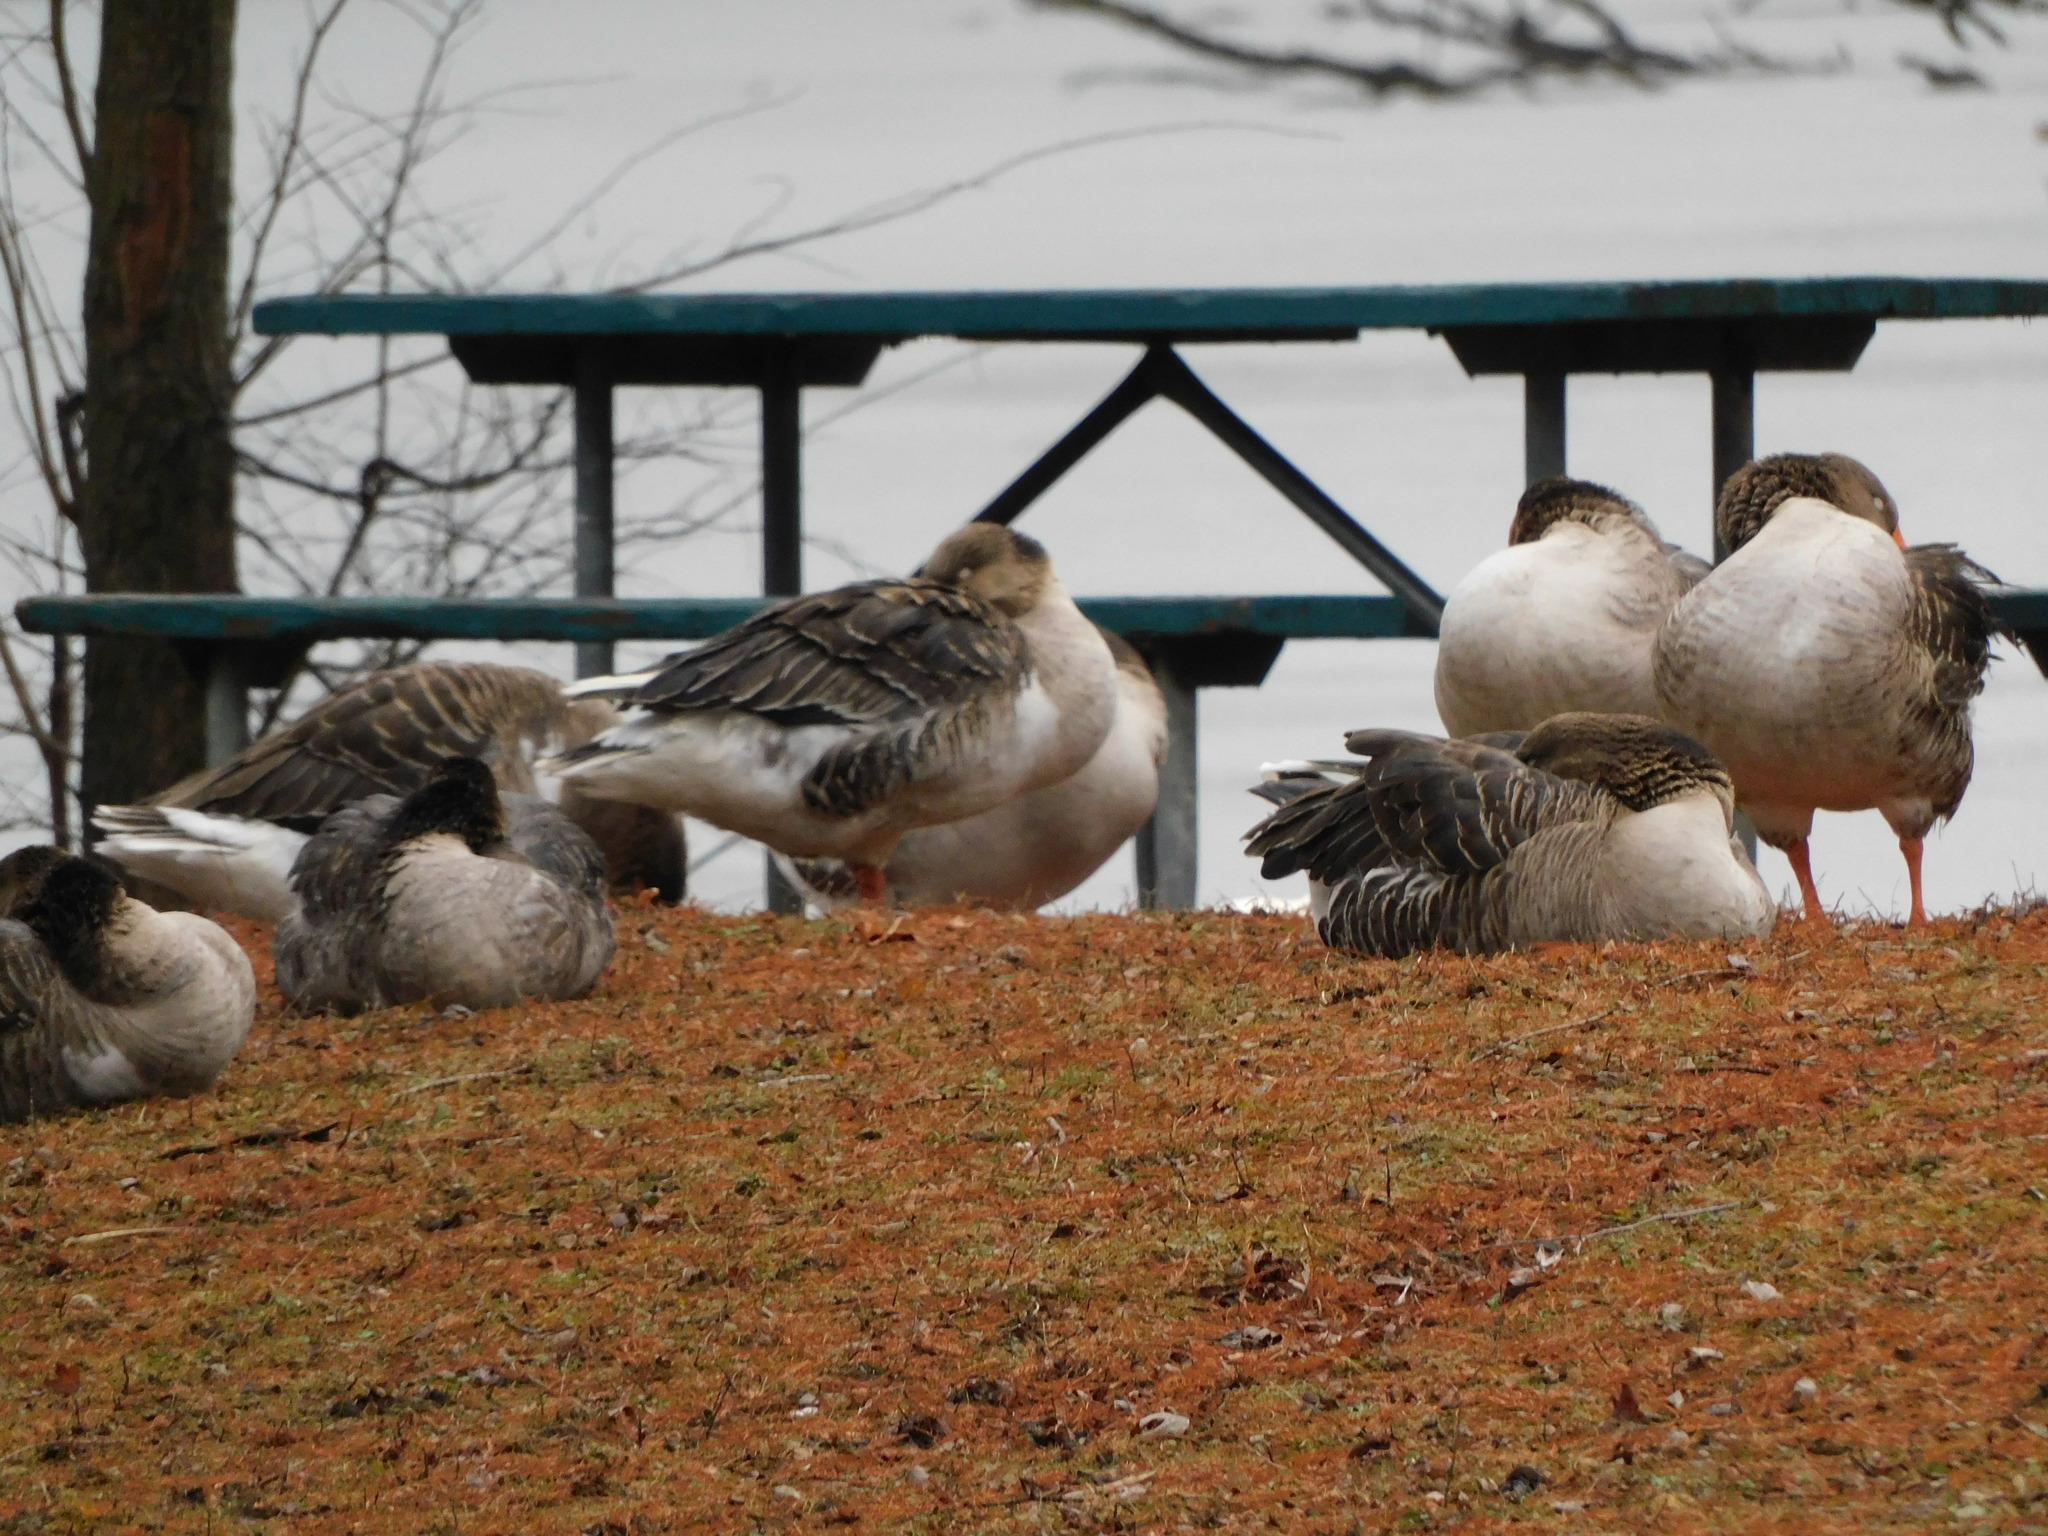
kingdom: Animalia
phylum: Chordata
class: Aves
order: Anseriformes
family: Anatidae
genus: Anser
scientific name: Anser anser
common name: Greylag goose
